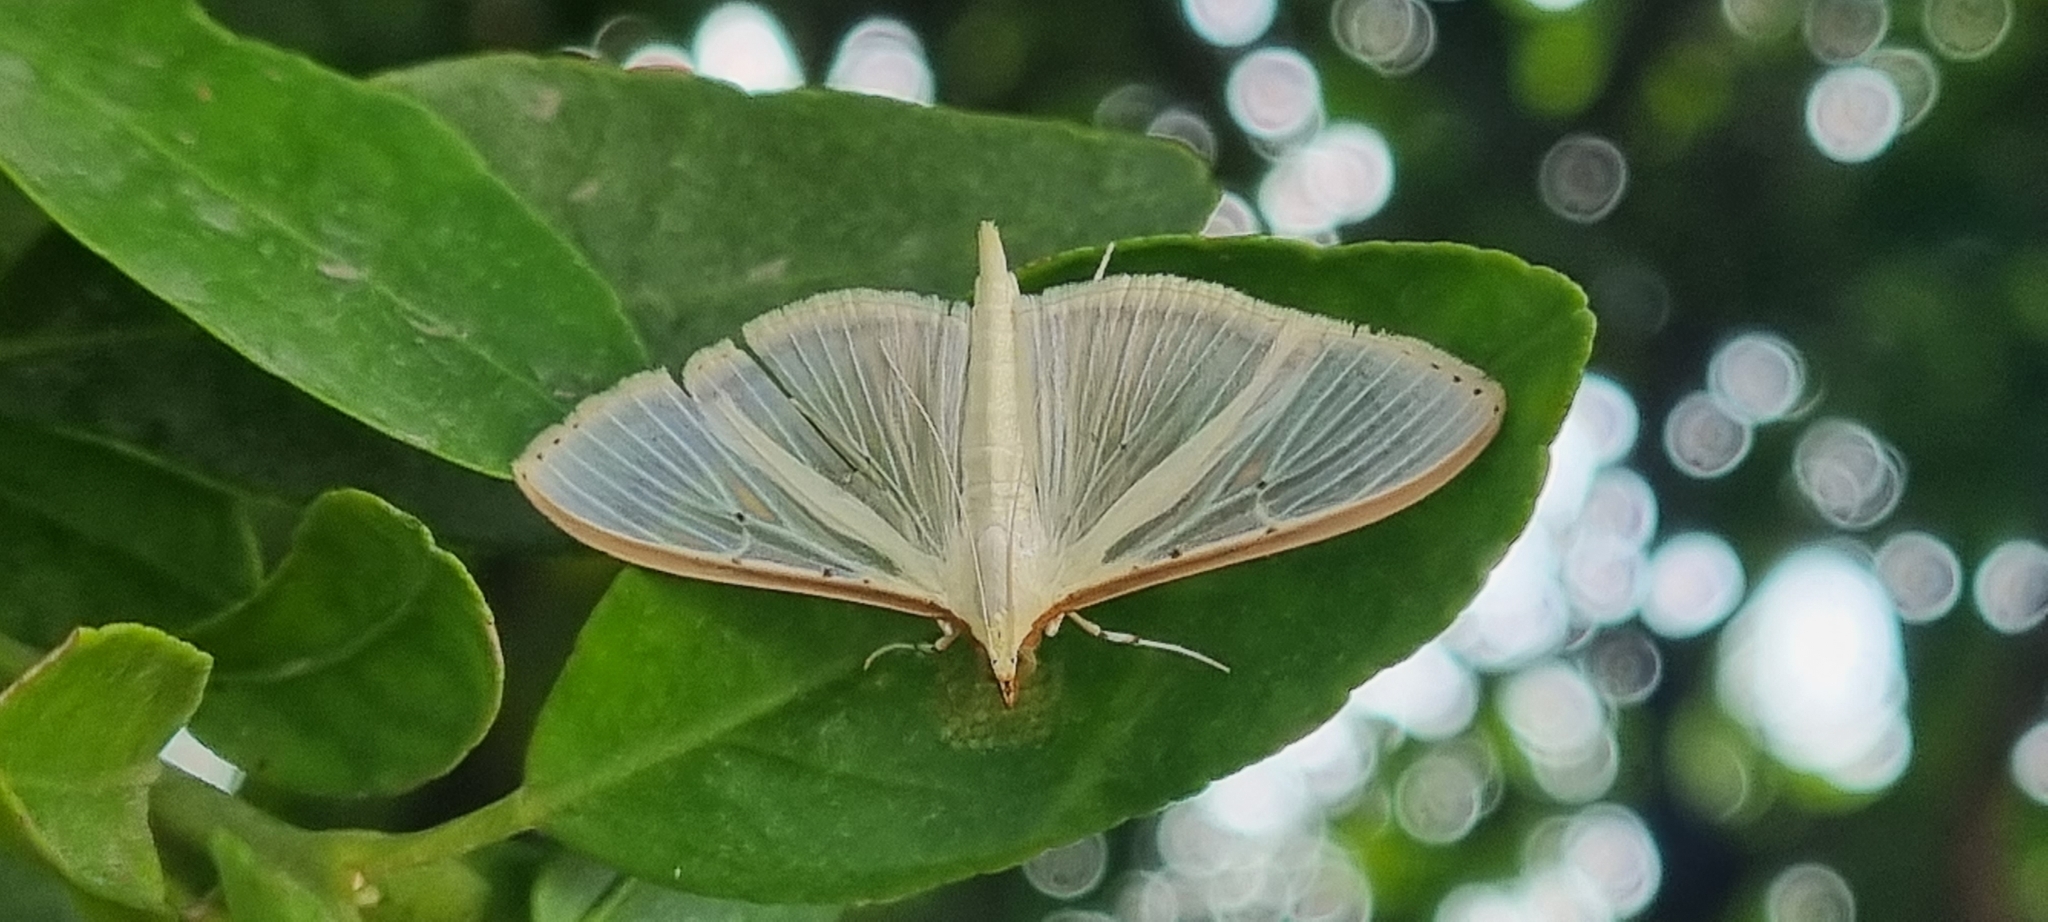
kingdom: Animalia
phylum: Arthropoda
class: Insecta
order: Lepidoptera
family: Crambidae
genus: Palpita
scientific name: Palpita quadristigmalis
